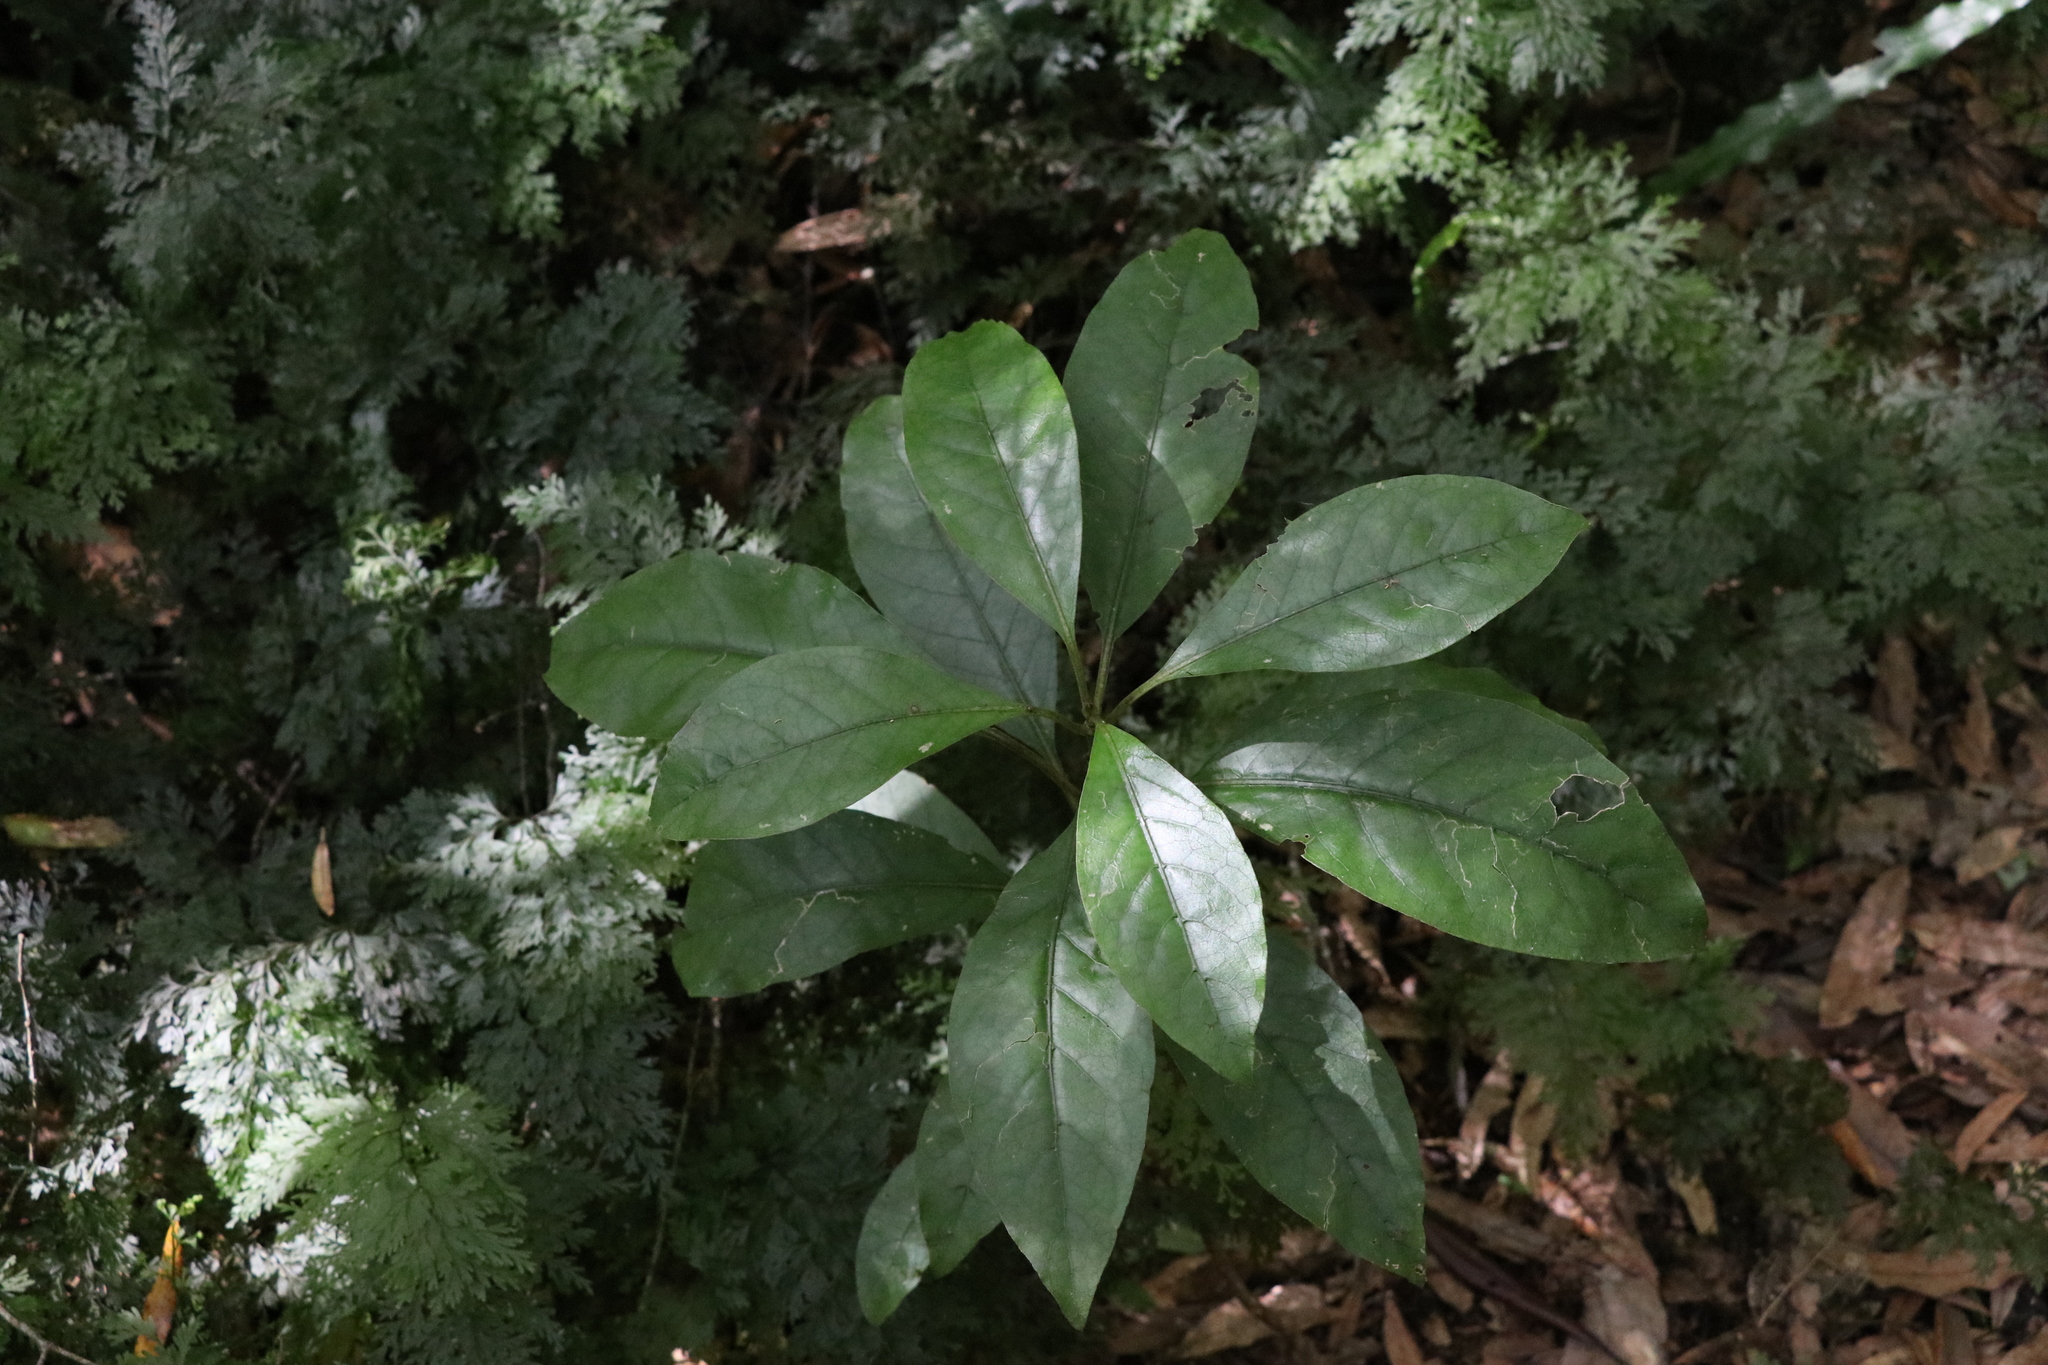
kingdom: Plantae
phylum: Tracheophyta
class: Magnoliopsida
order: Gentianales
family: Rubiaceae
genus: Coprosma
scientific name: Coprosma autumnalis
